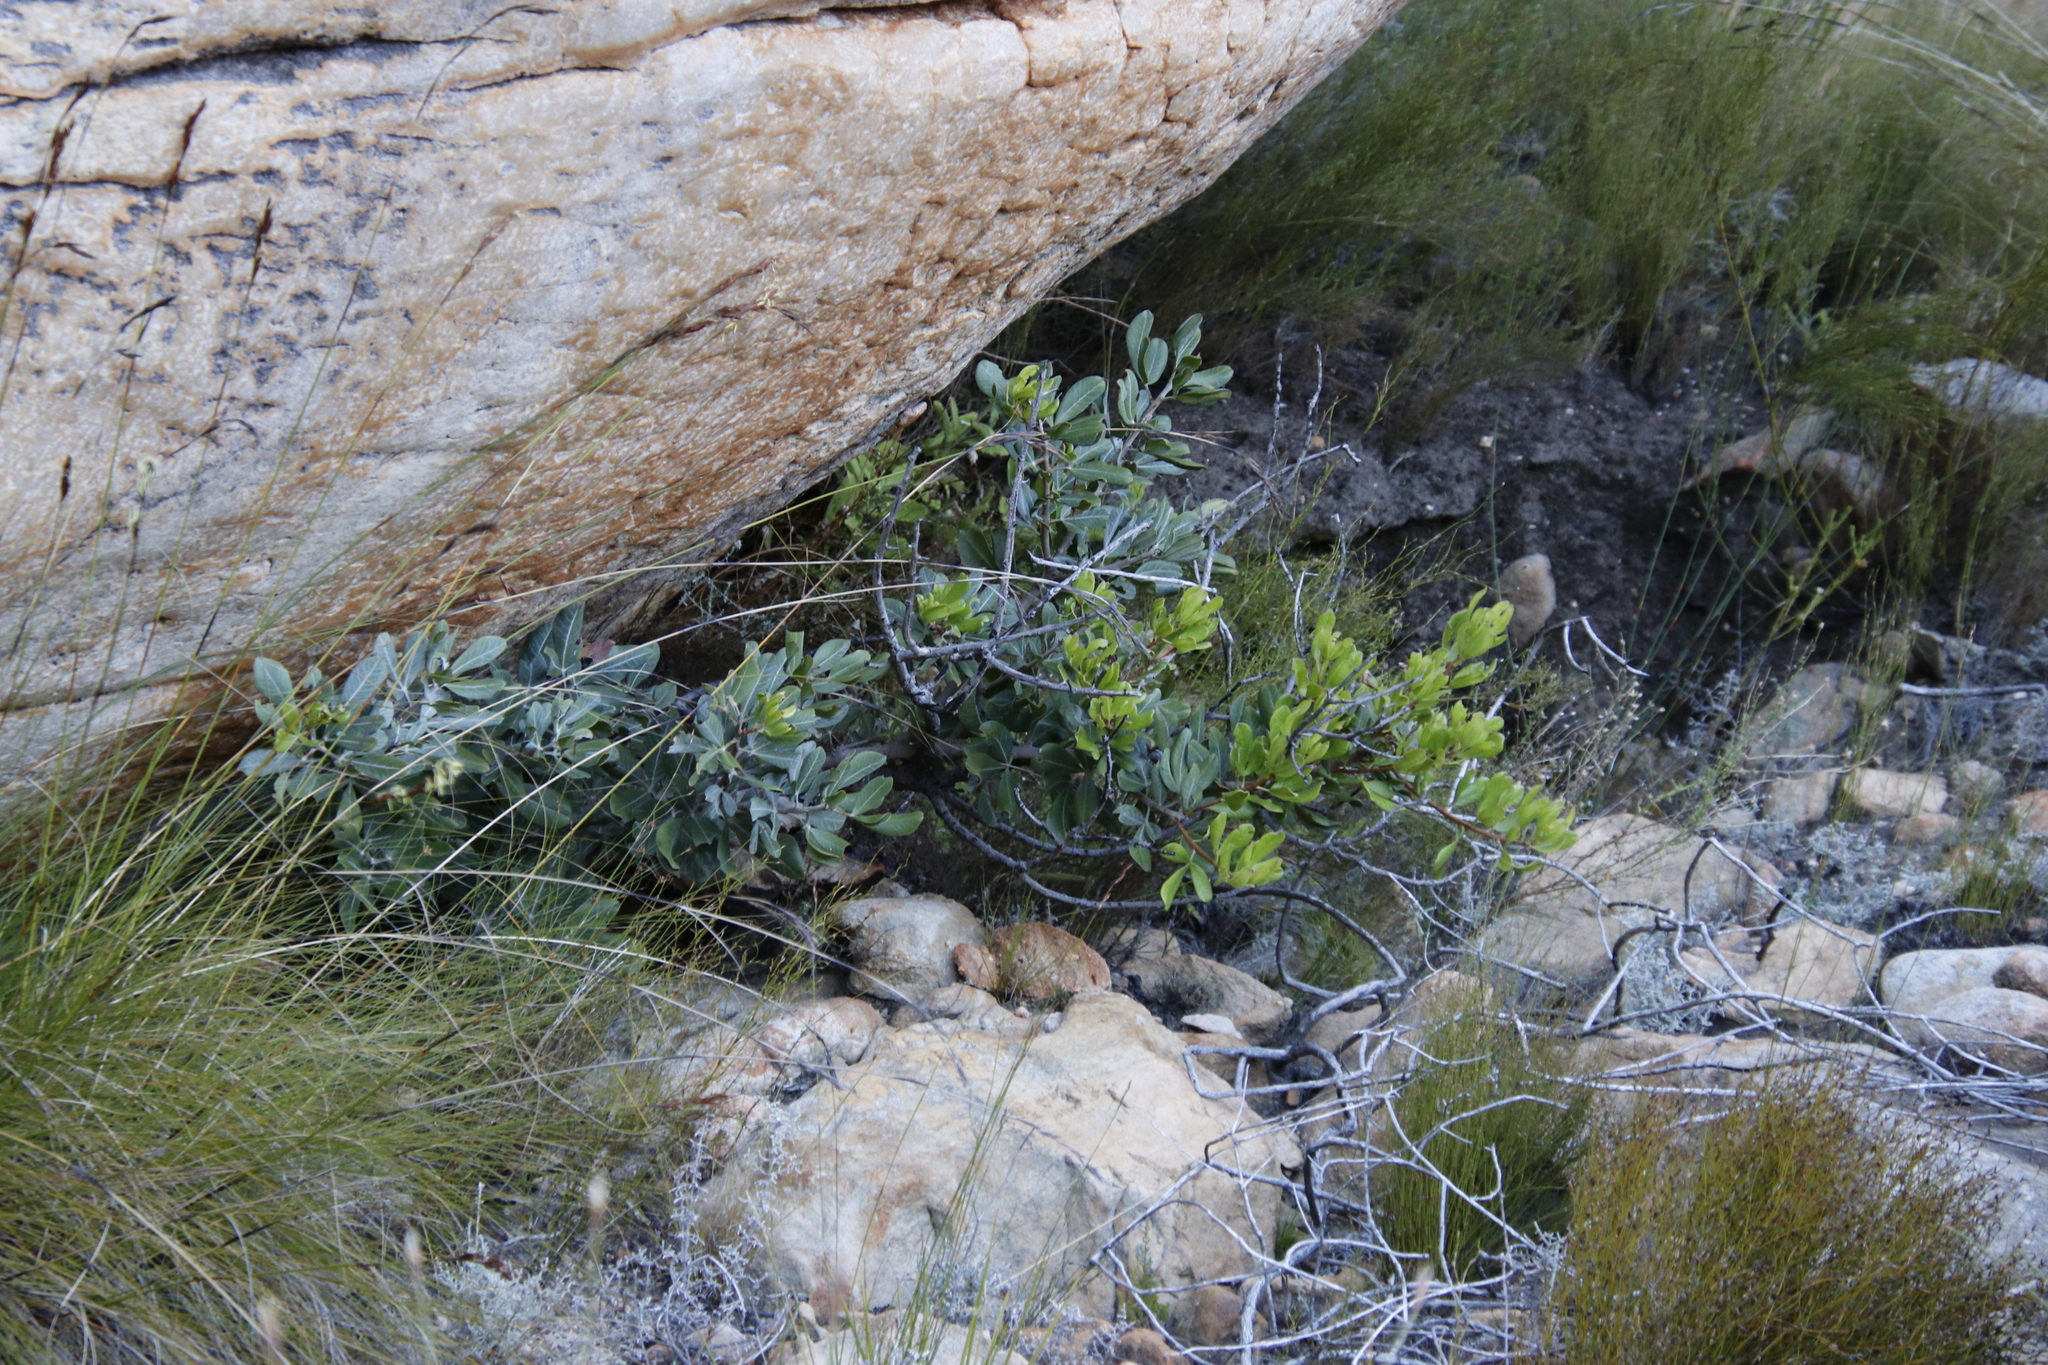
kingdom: Plantae
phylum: Tracheophyta
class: Magnoliopsida
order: Sapindales
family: Anacardiaceae
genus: Searsia
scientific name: Searsia scytophylla
